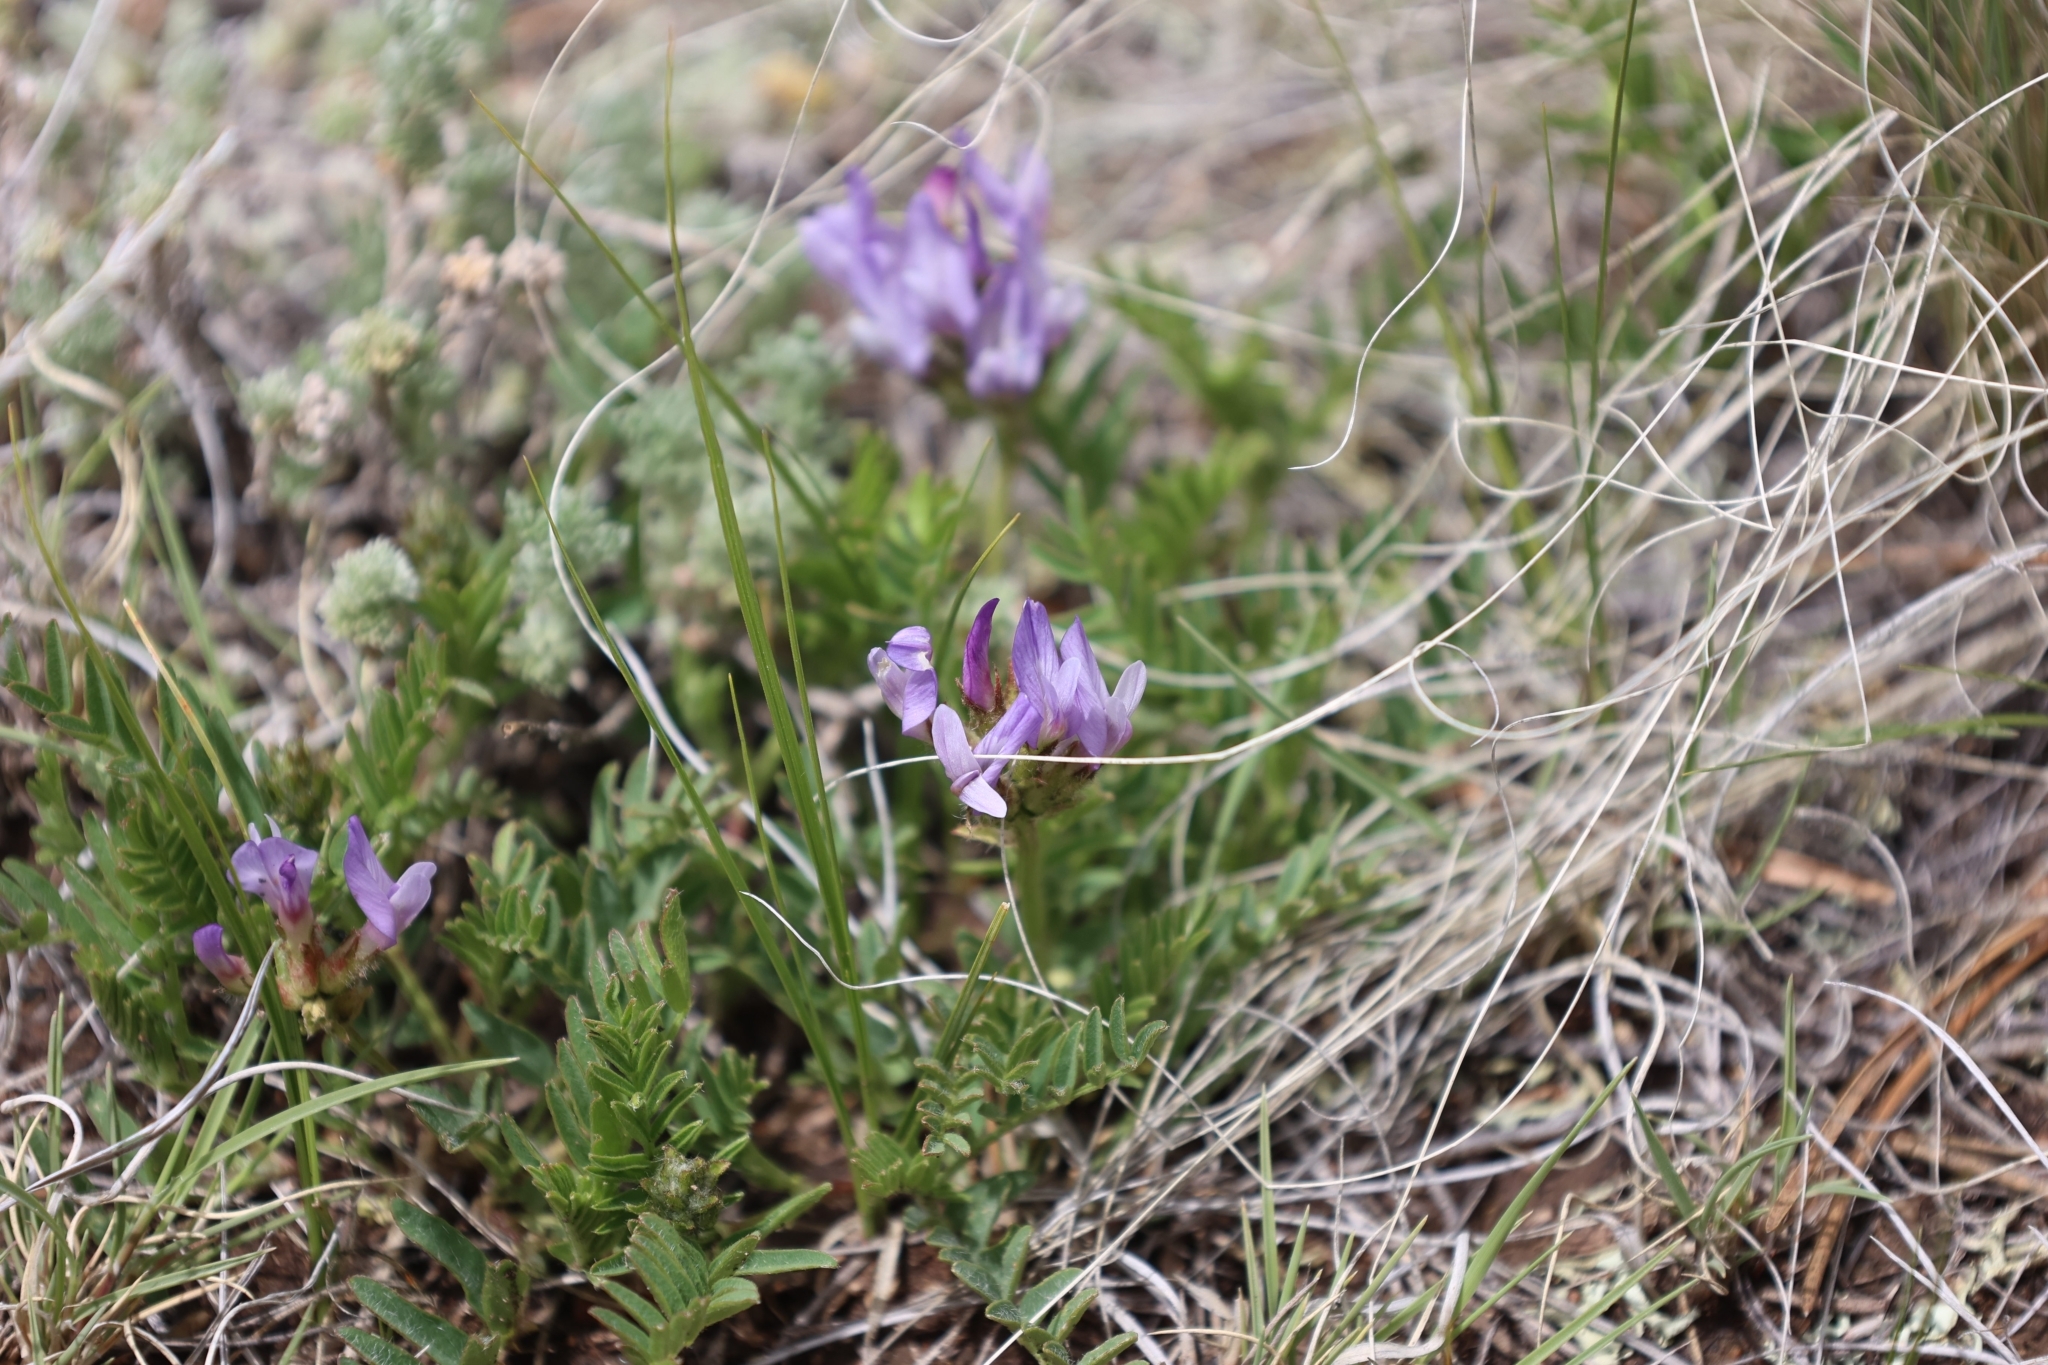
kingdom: Plantae
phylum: Tracheophyta
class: Magnoliopsida
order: Fabales
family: Fabaceae
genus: Astragalus
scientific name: Astragalus agrestis
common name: Field milk-vetch
